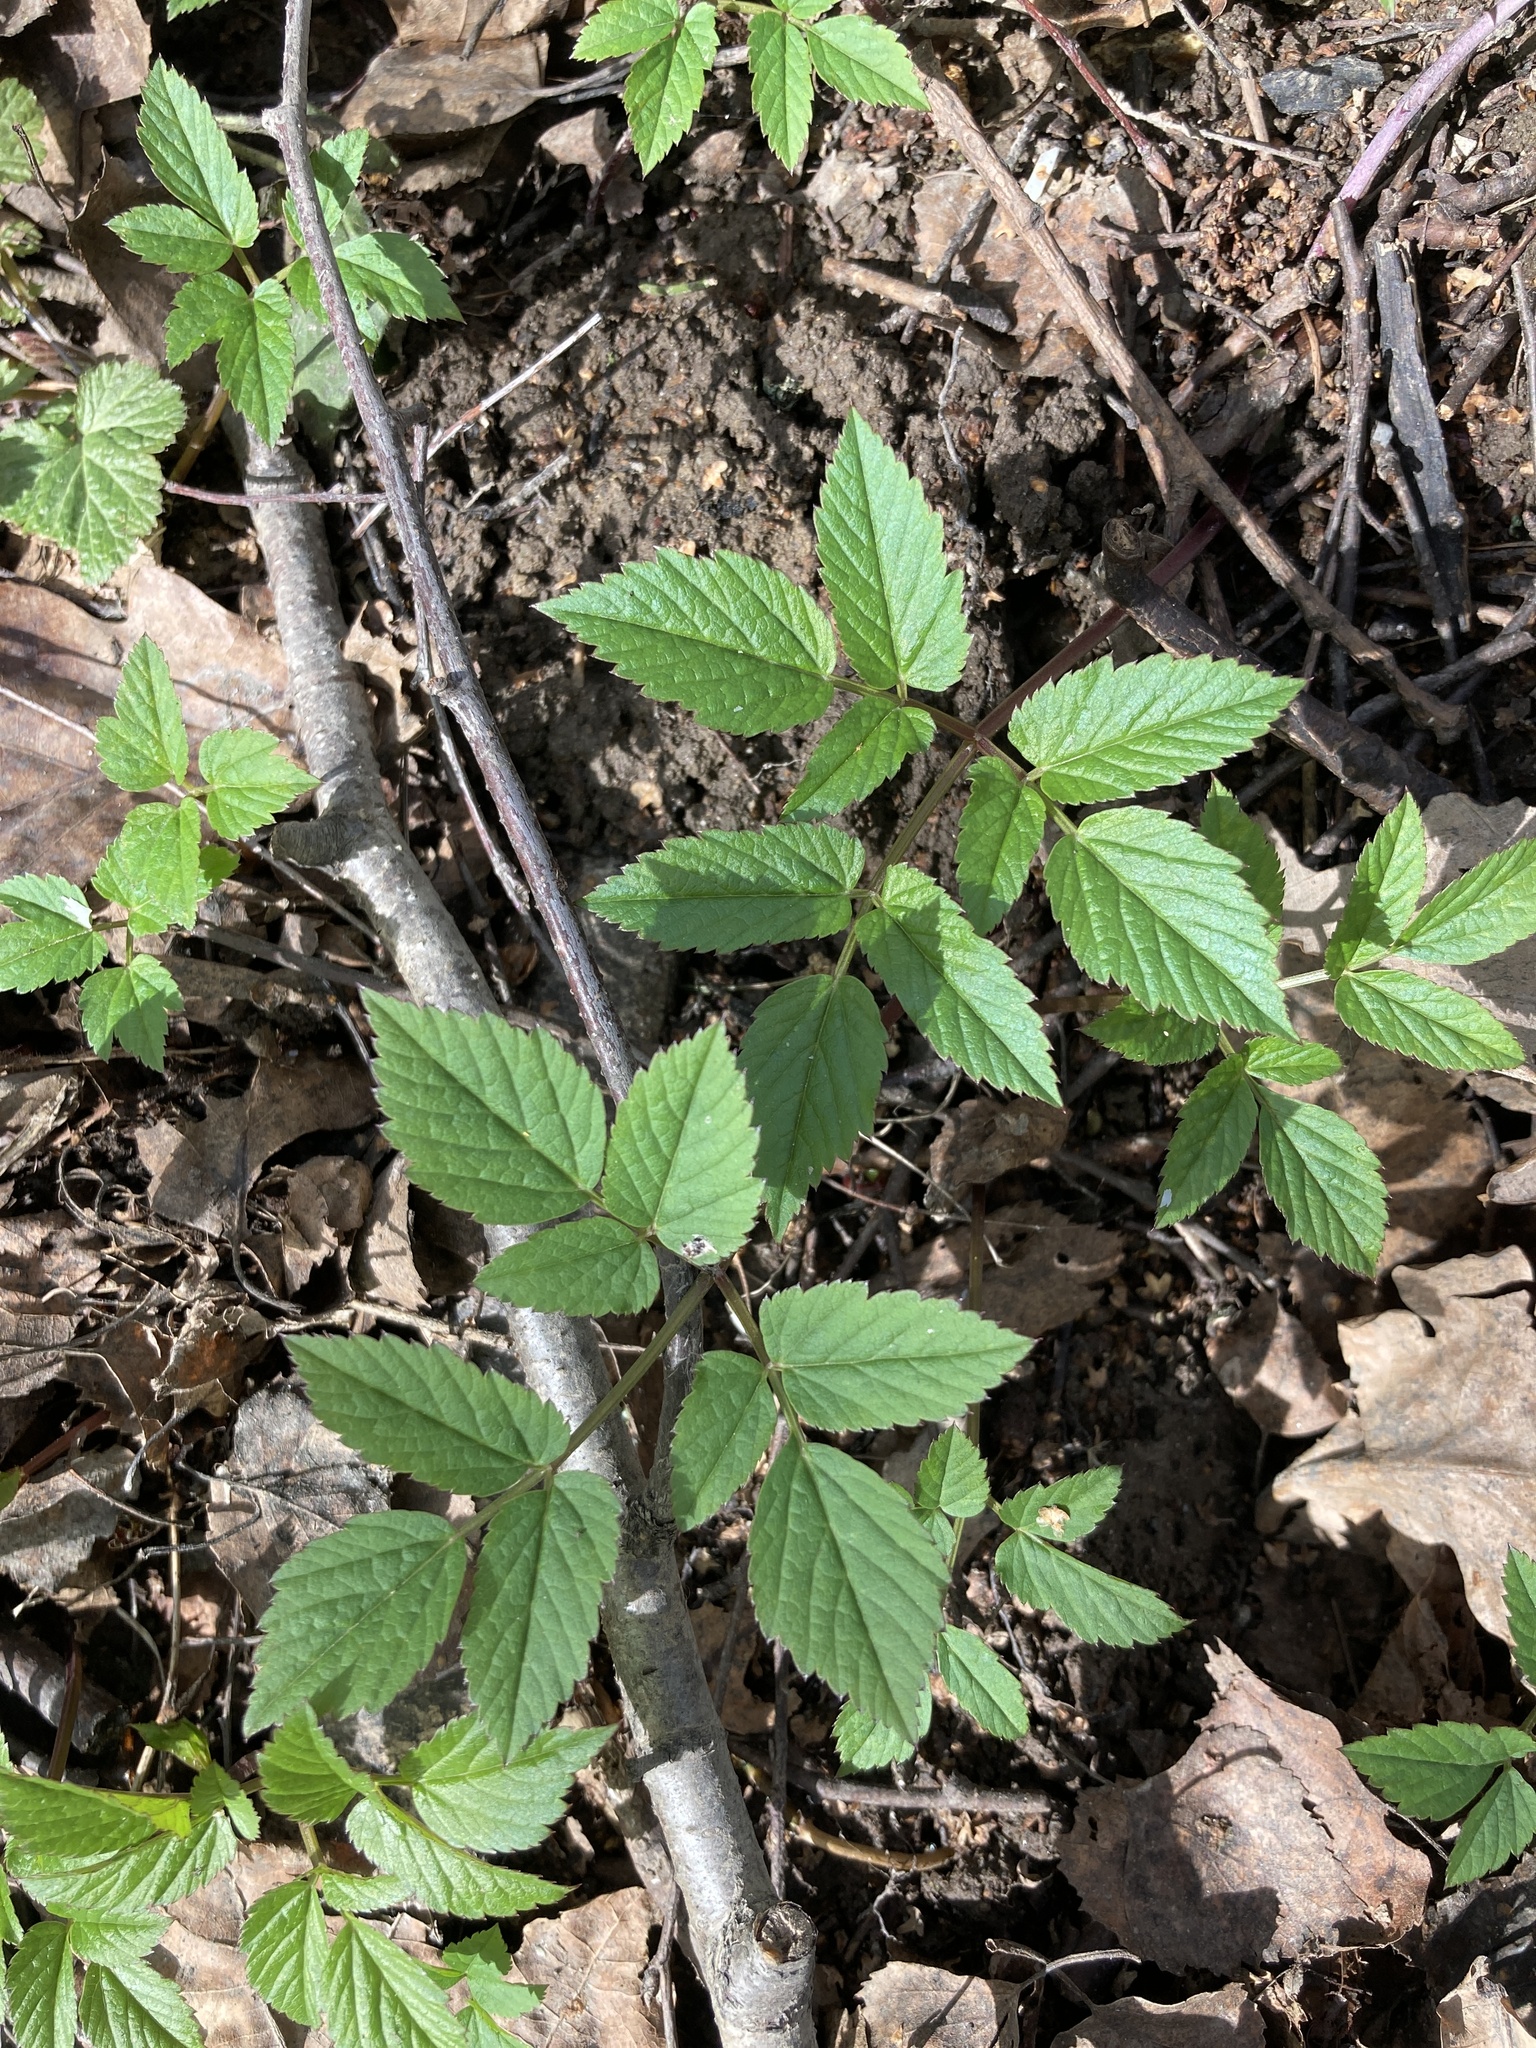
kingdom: Plantae
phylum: Tracheophyta
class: Magnoliopsida
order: Apiales
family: Apiaceae
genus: Aegopodium
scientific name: Aegopodium podagraria
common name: Ground-elder
